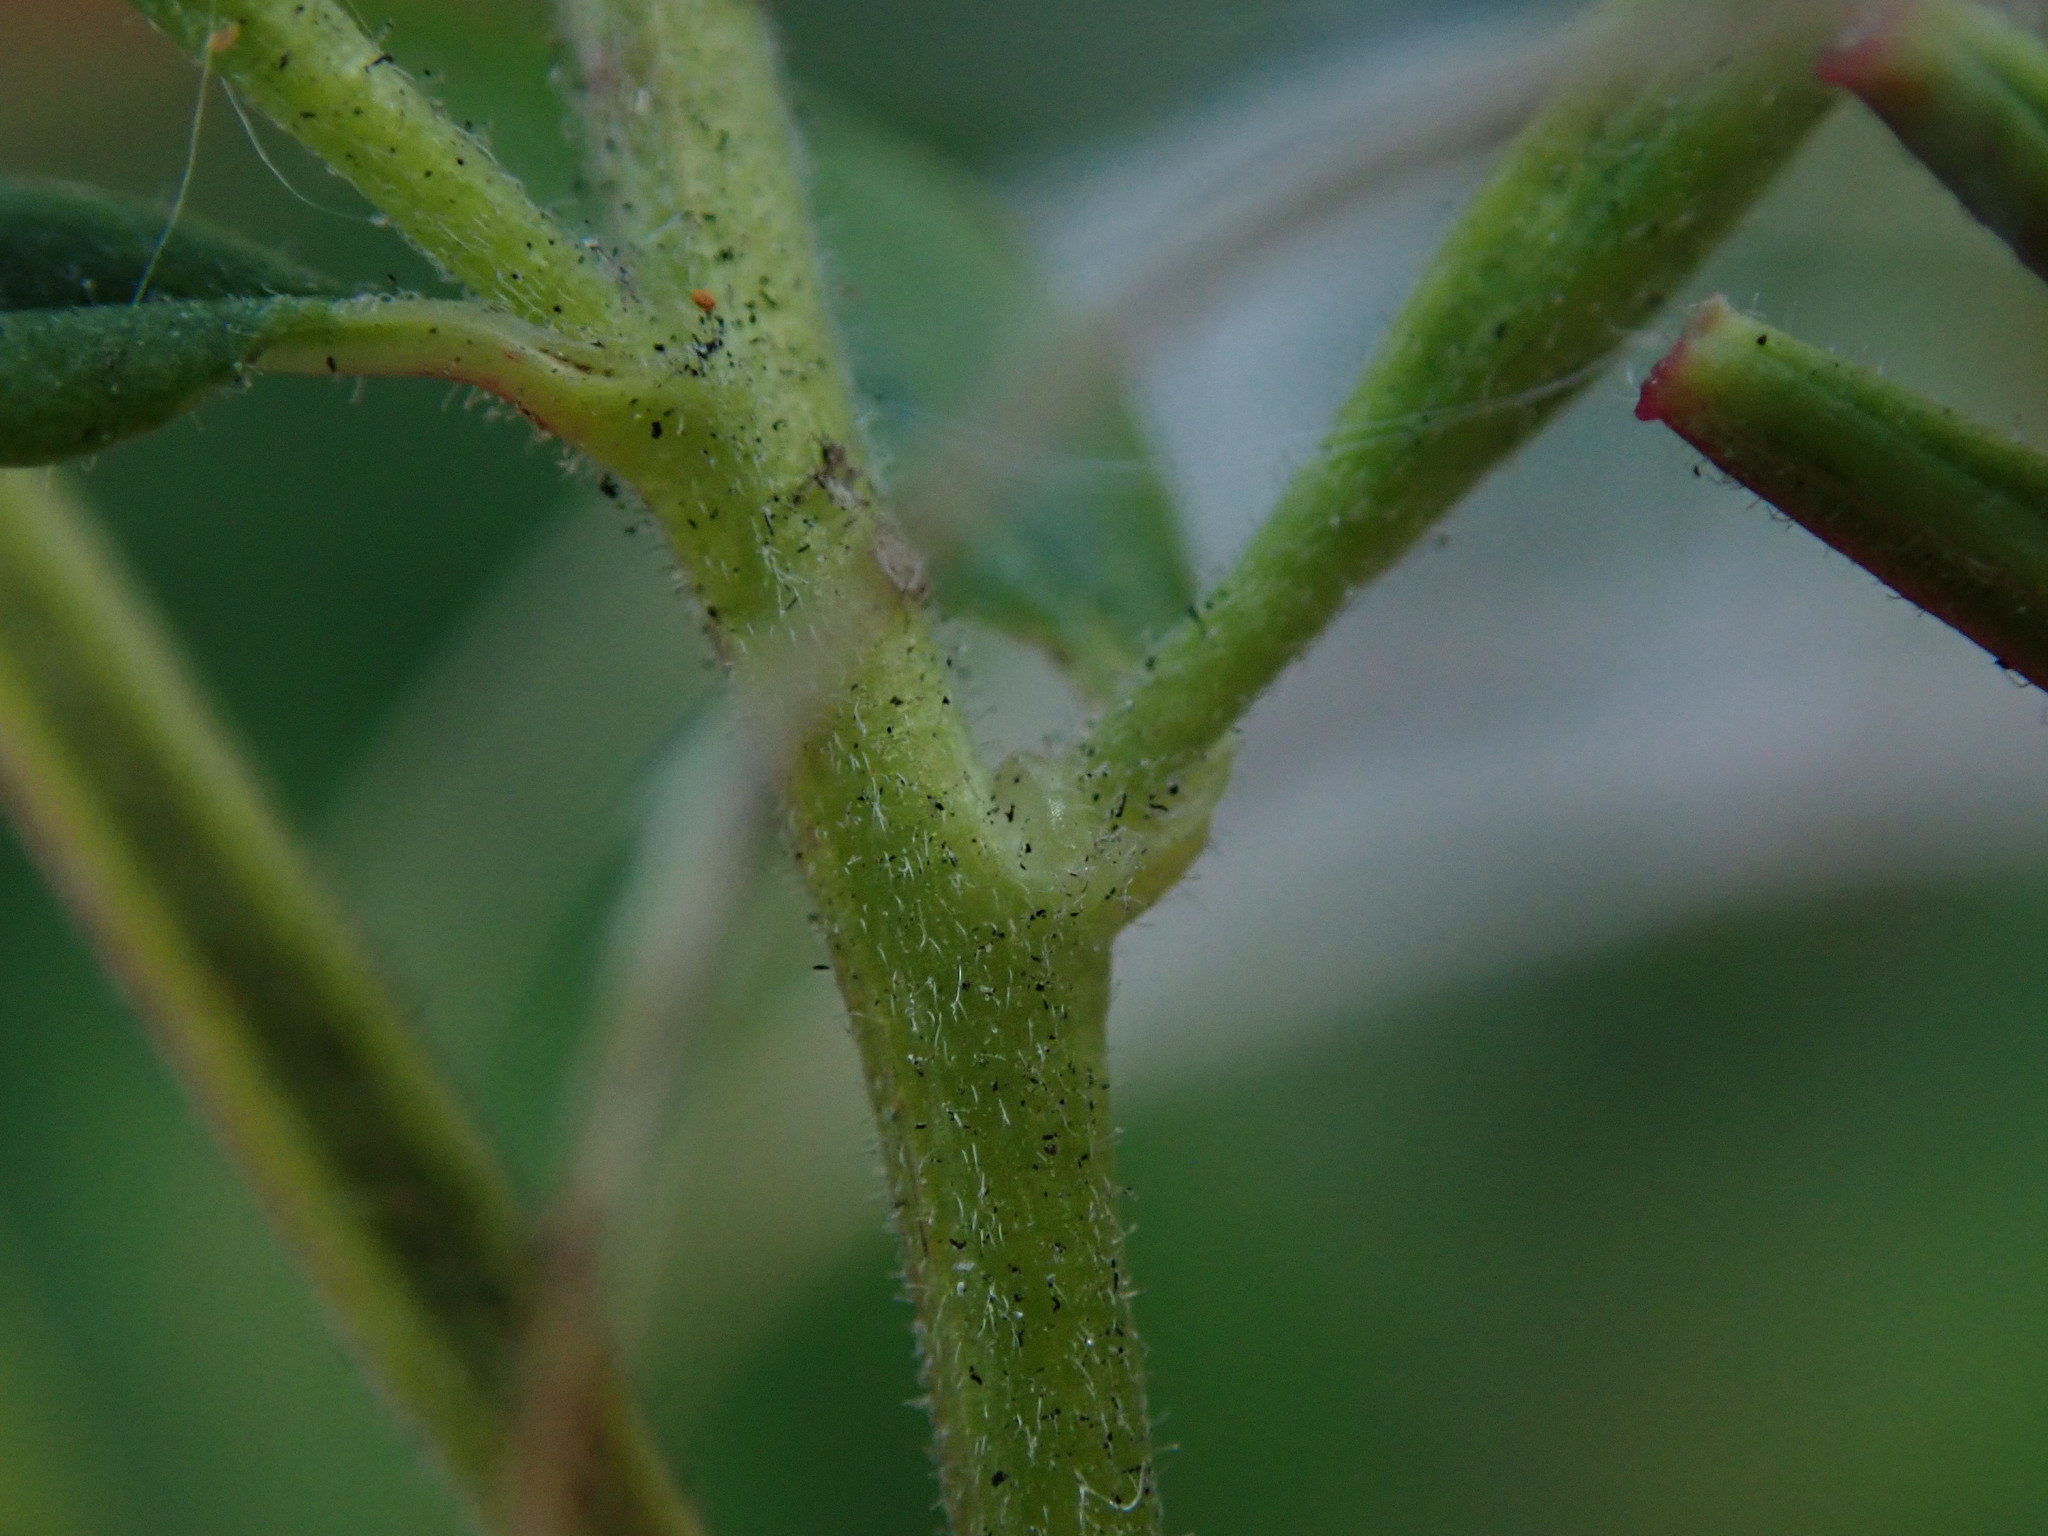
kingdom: Plantae
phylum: Tracheophyta
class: Magnoliopsida
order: Myrtales
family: Onagraceae
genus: Epilobium
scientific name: Epilobium ciliatum
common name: American willowherb
